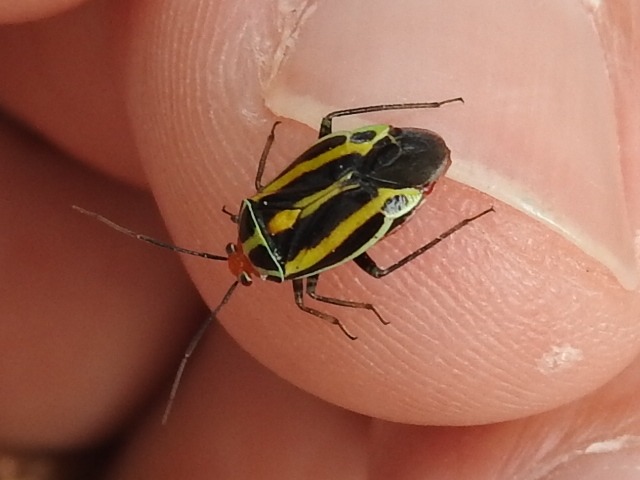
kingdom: Animalia
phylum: Arthropoda
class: Insecta
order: Hemiptera
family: Miridae
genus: Poecilocapsus
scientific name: Poecilocapsus lineatus
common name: Four-lined plant bug
